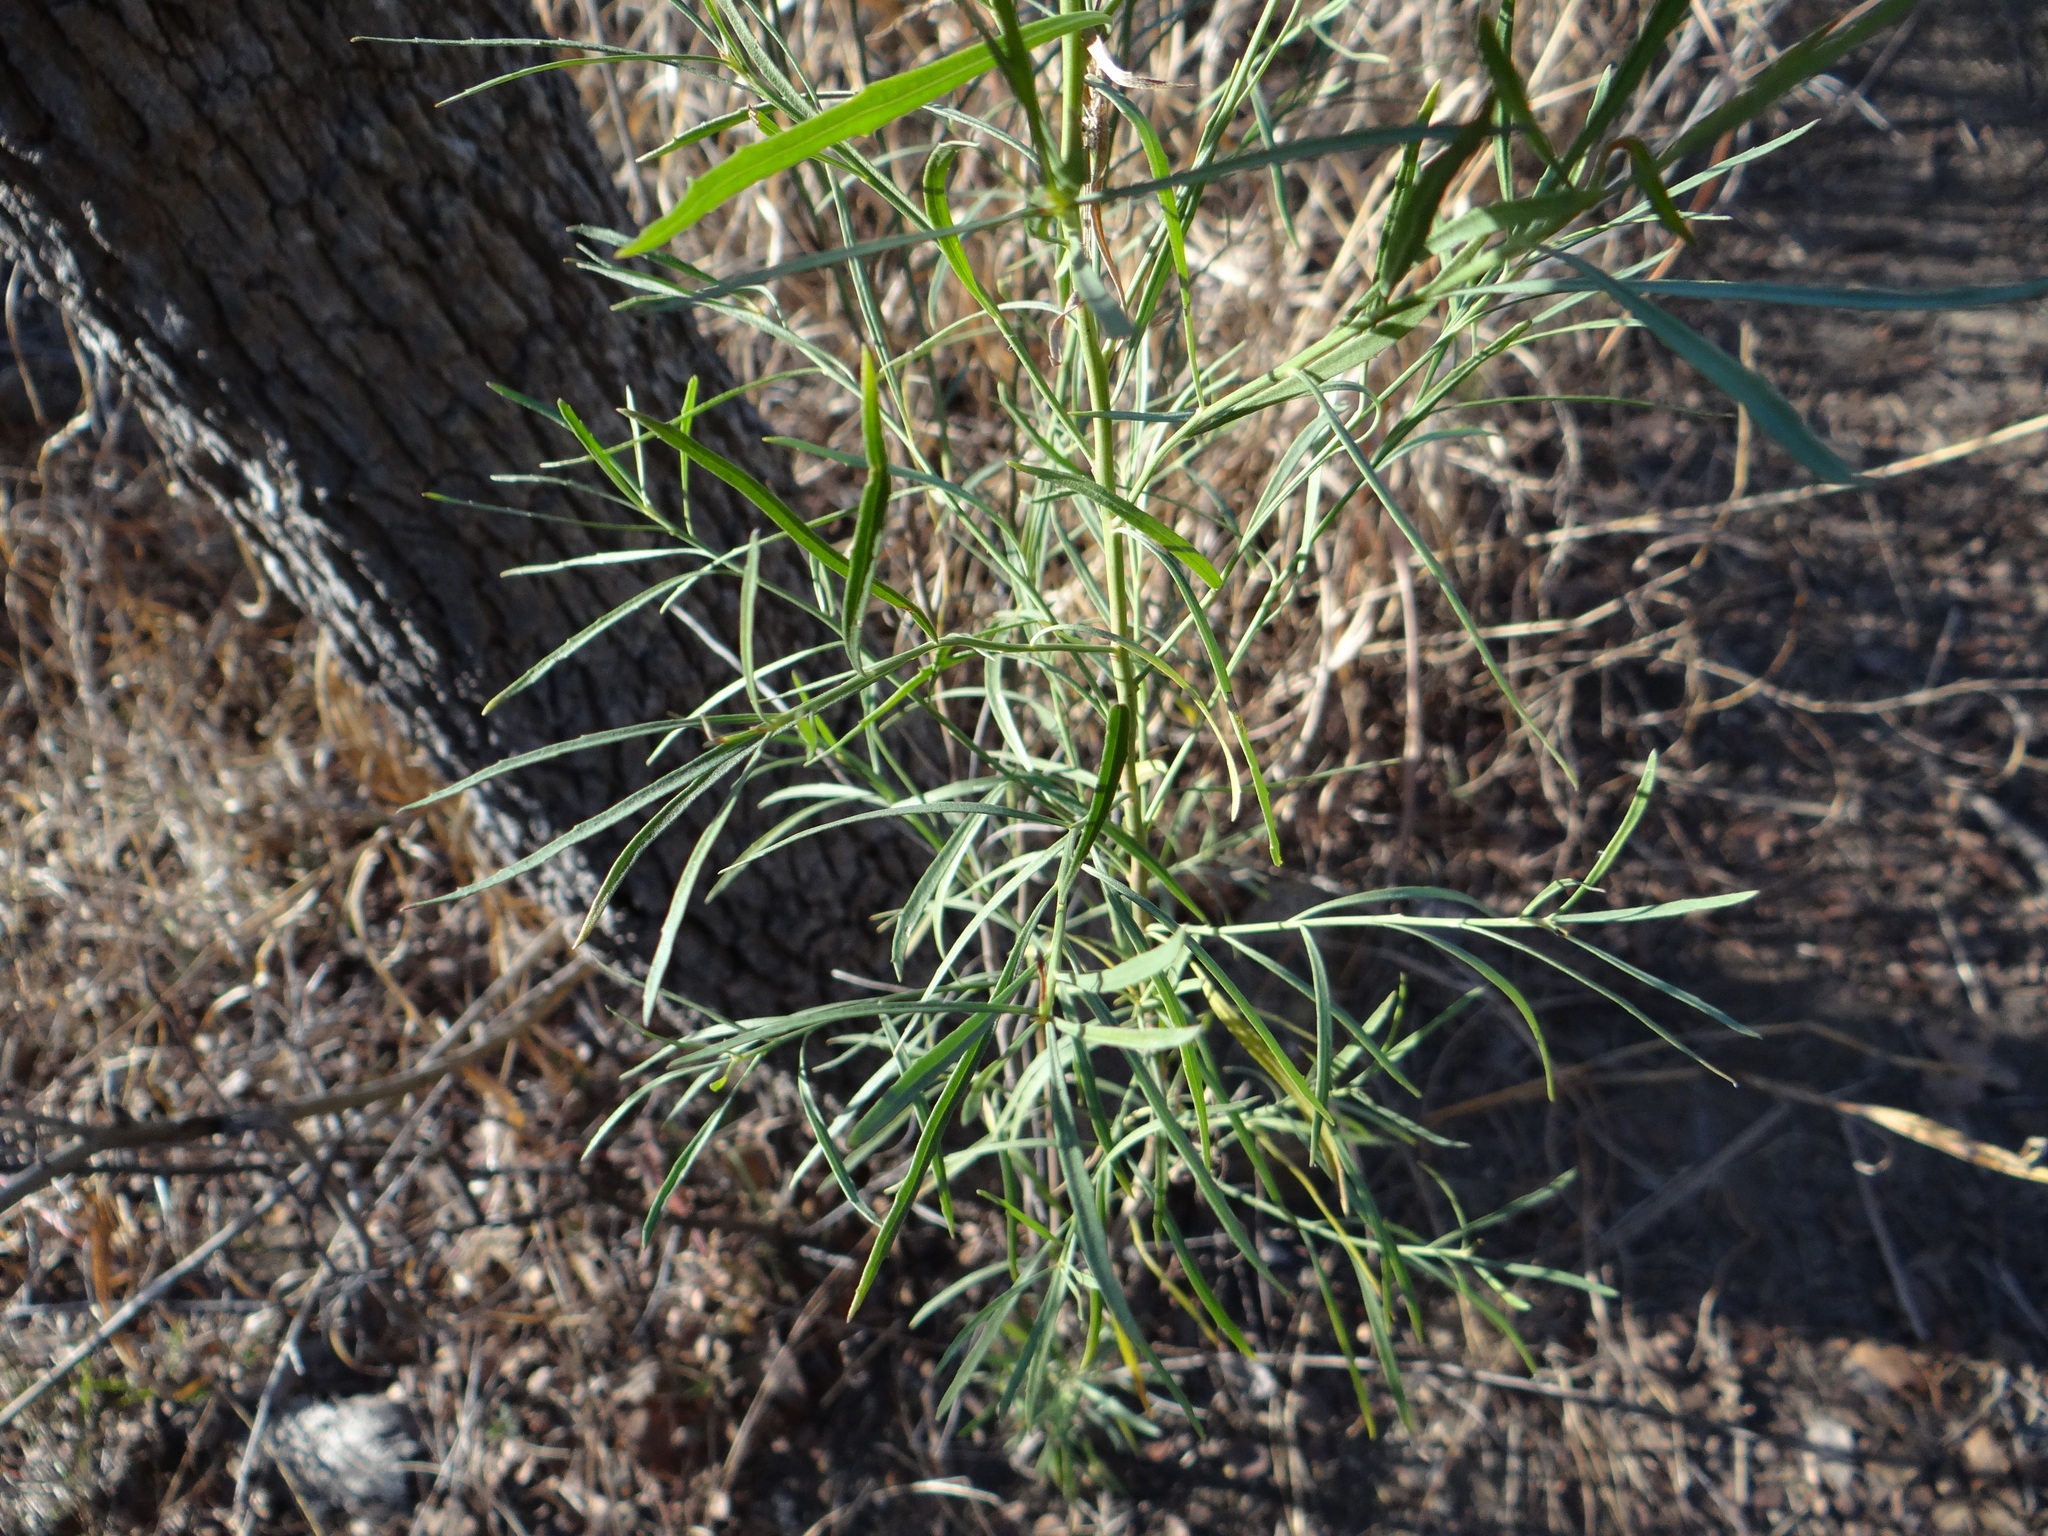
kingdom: Plantae
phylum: Tracheophyta
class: Magnoliopsida
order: Asterales
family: Asteraceae
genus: Baccharis
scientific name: Baccharis neglecta
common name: Roosevelt-weed
